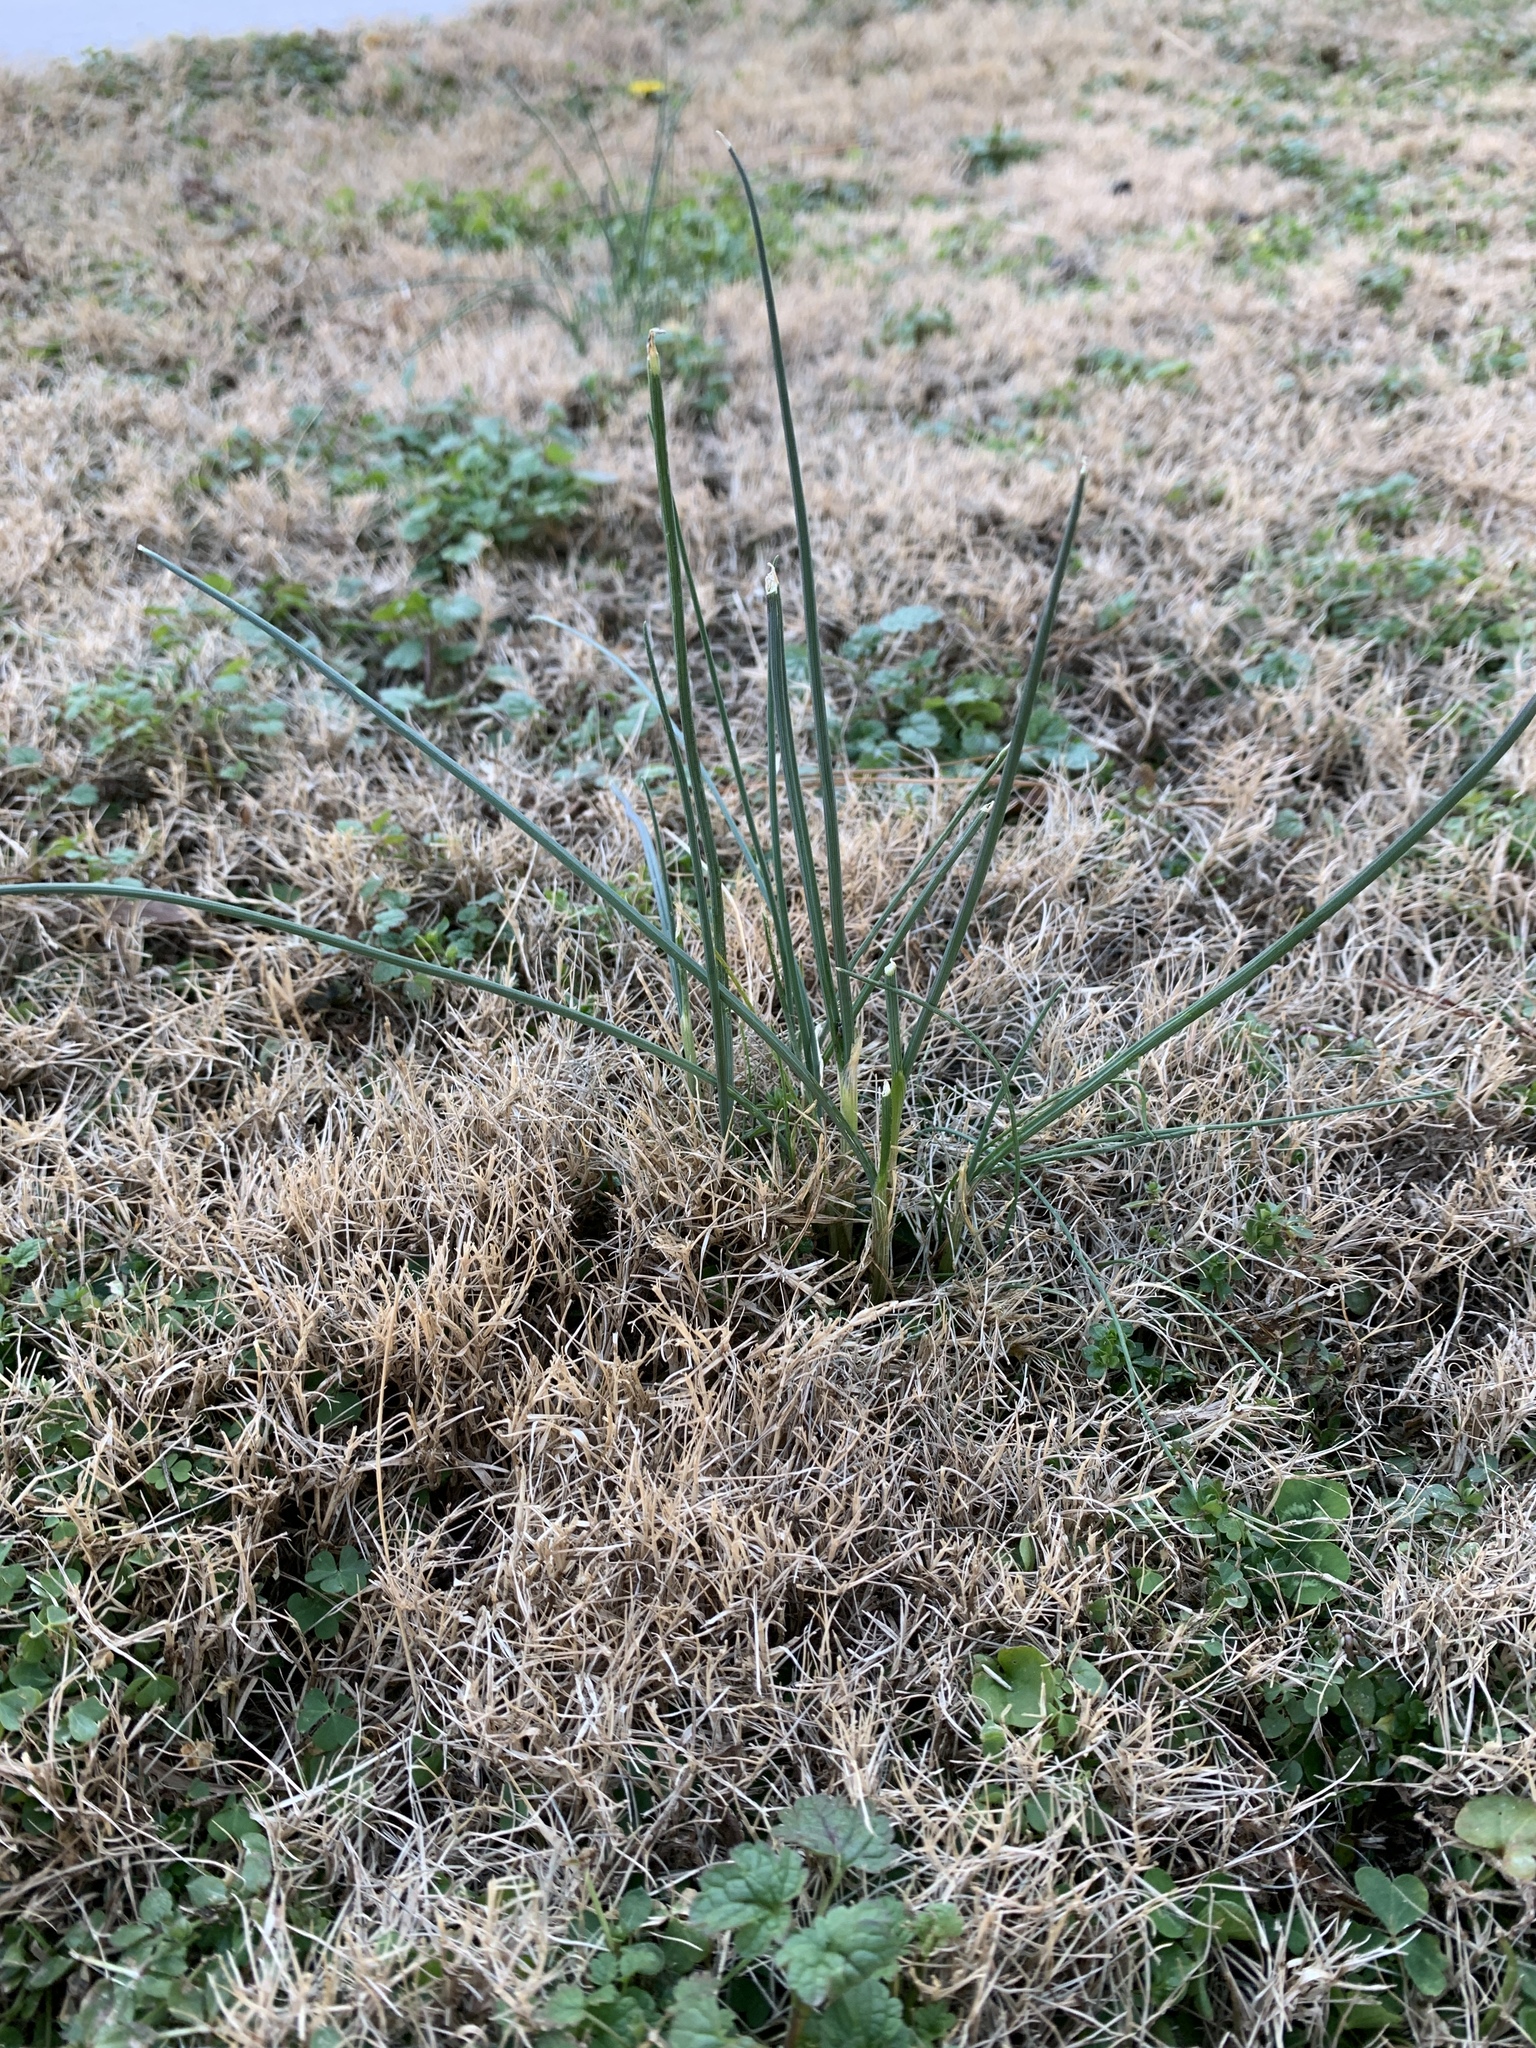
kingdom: Plantae
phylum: Tracheophyta
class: Liliopsida
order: Asparagales
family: Amaryllidaceae
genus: Allium
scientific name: Allium vineale
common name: Crow garlic
